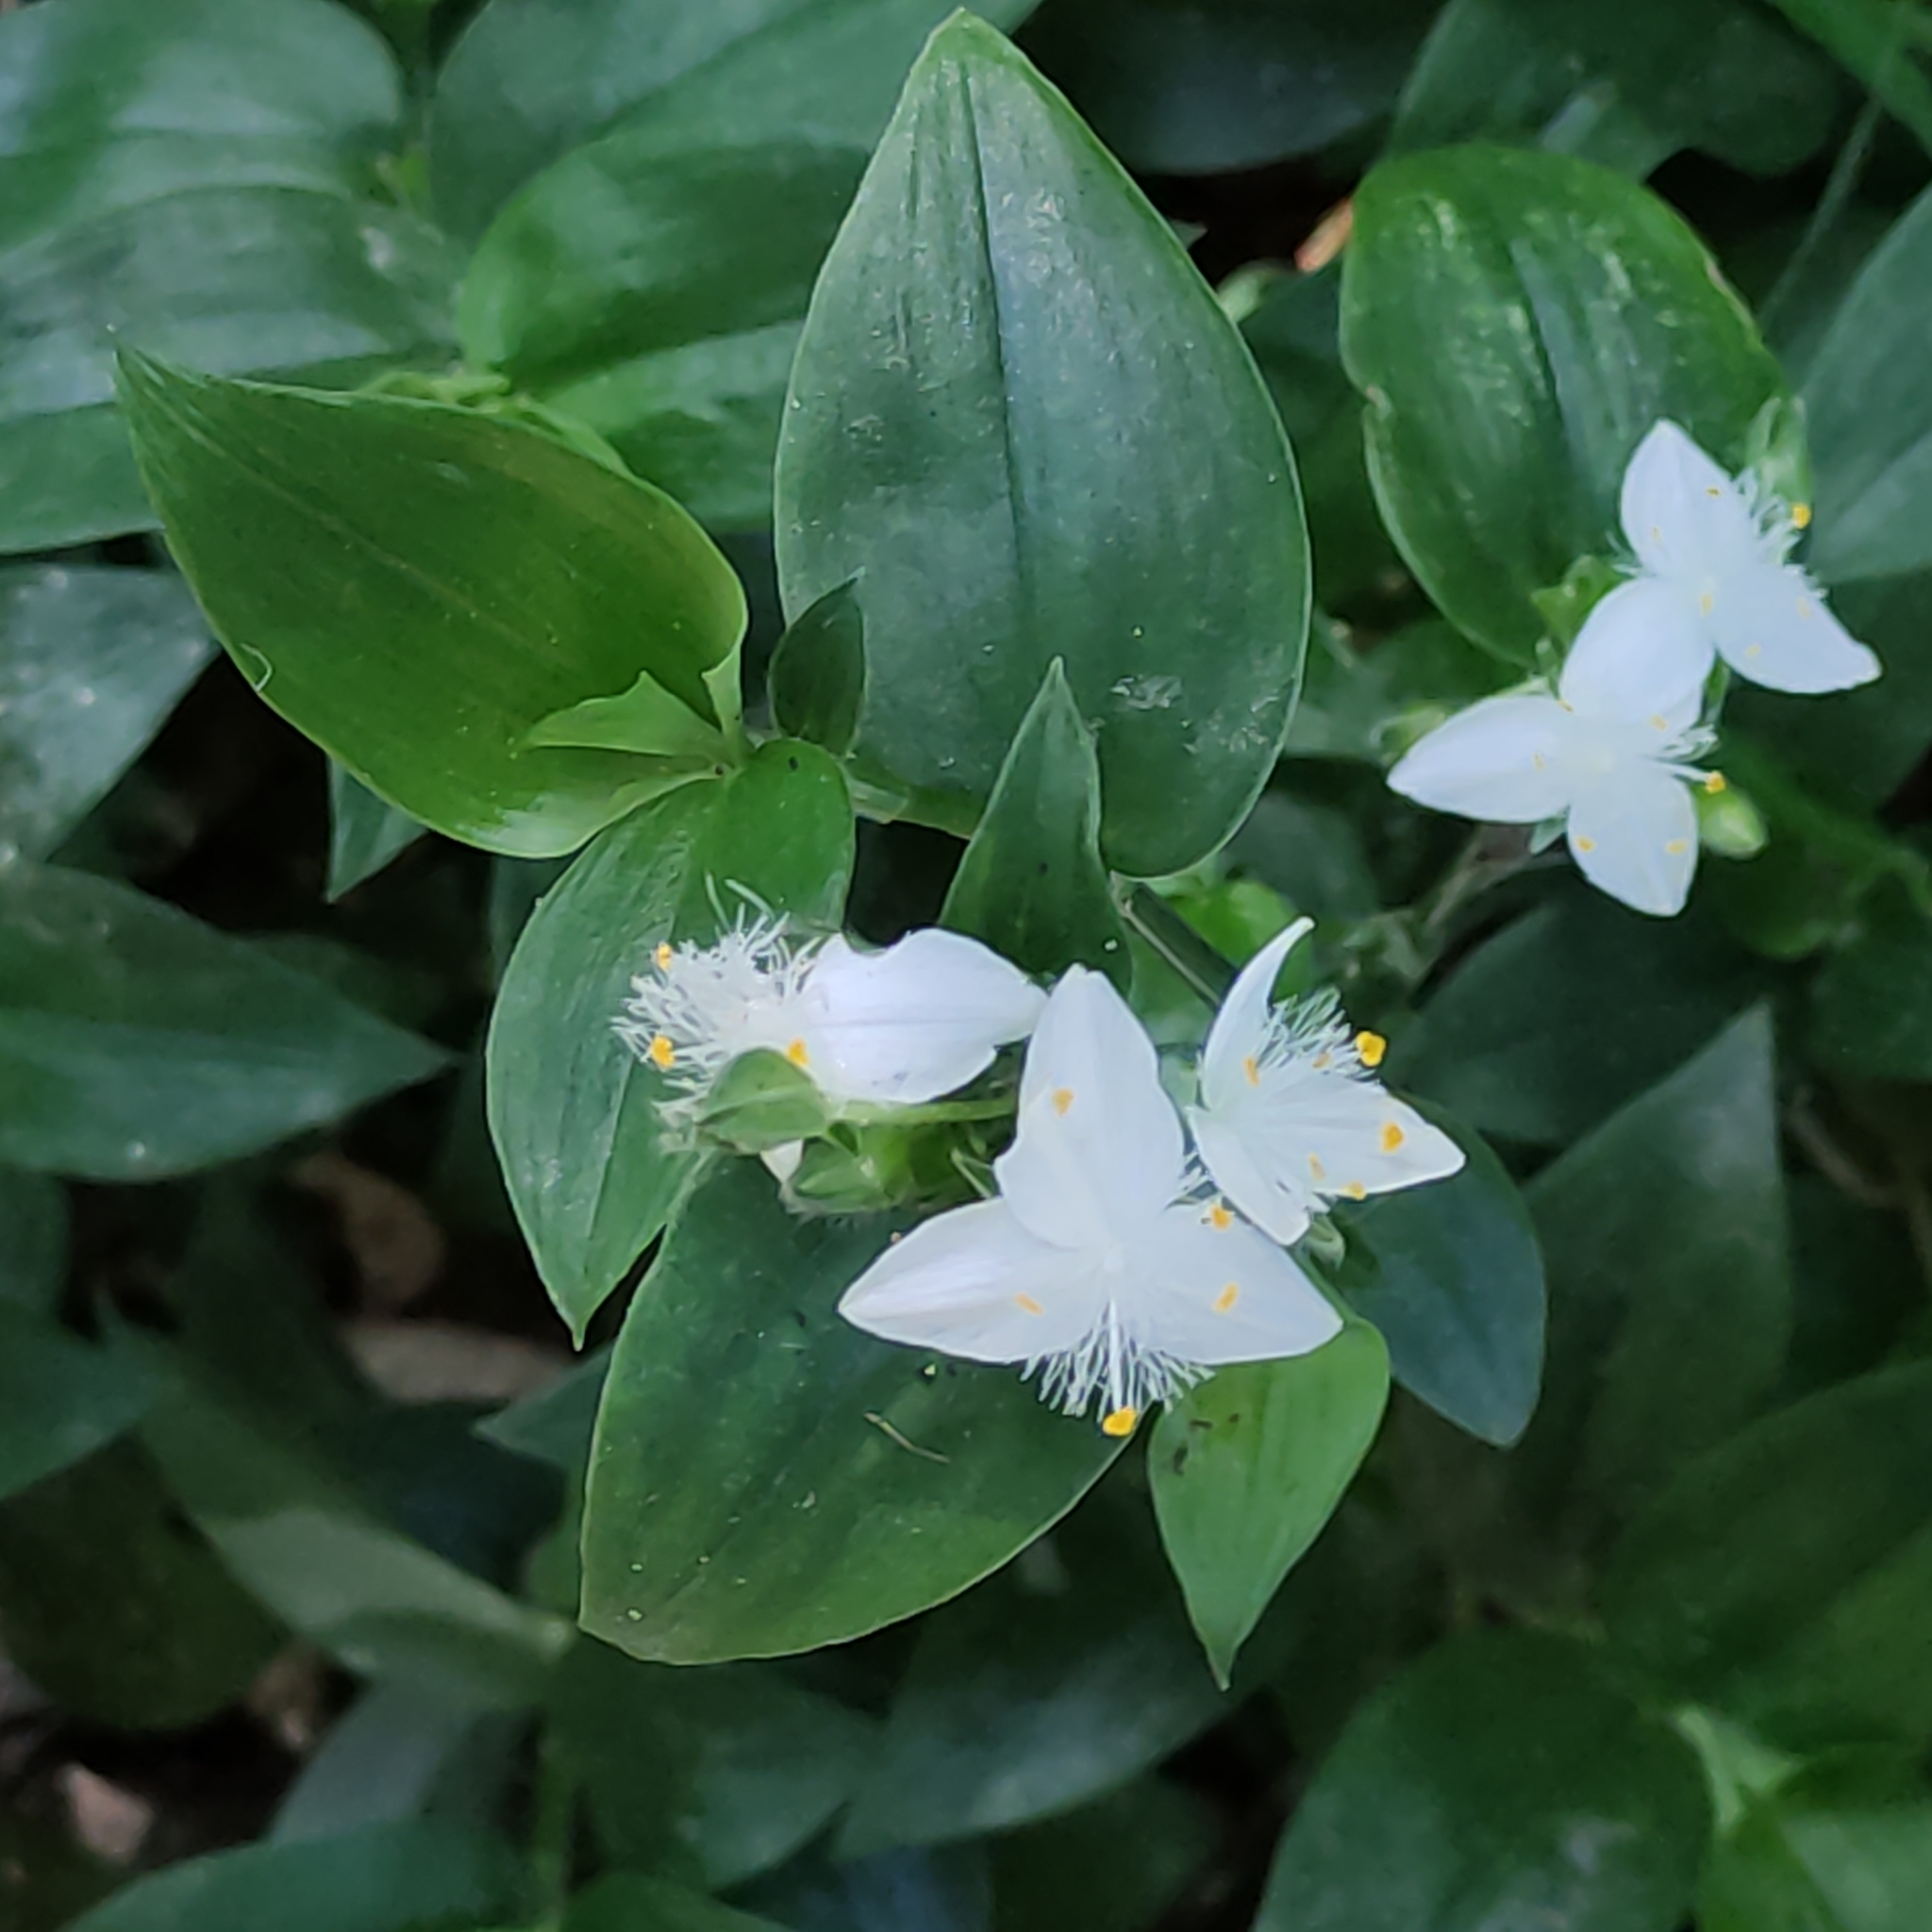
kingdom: Plantae
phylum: Tracheophyta
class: Liliopsida
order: Commelinales
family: Commelinaceae
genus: Tradescantia
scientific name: Tradescantia fluminensis
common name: Wandering-jew
